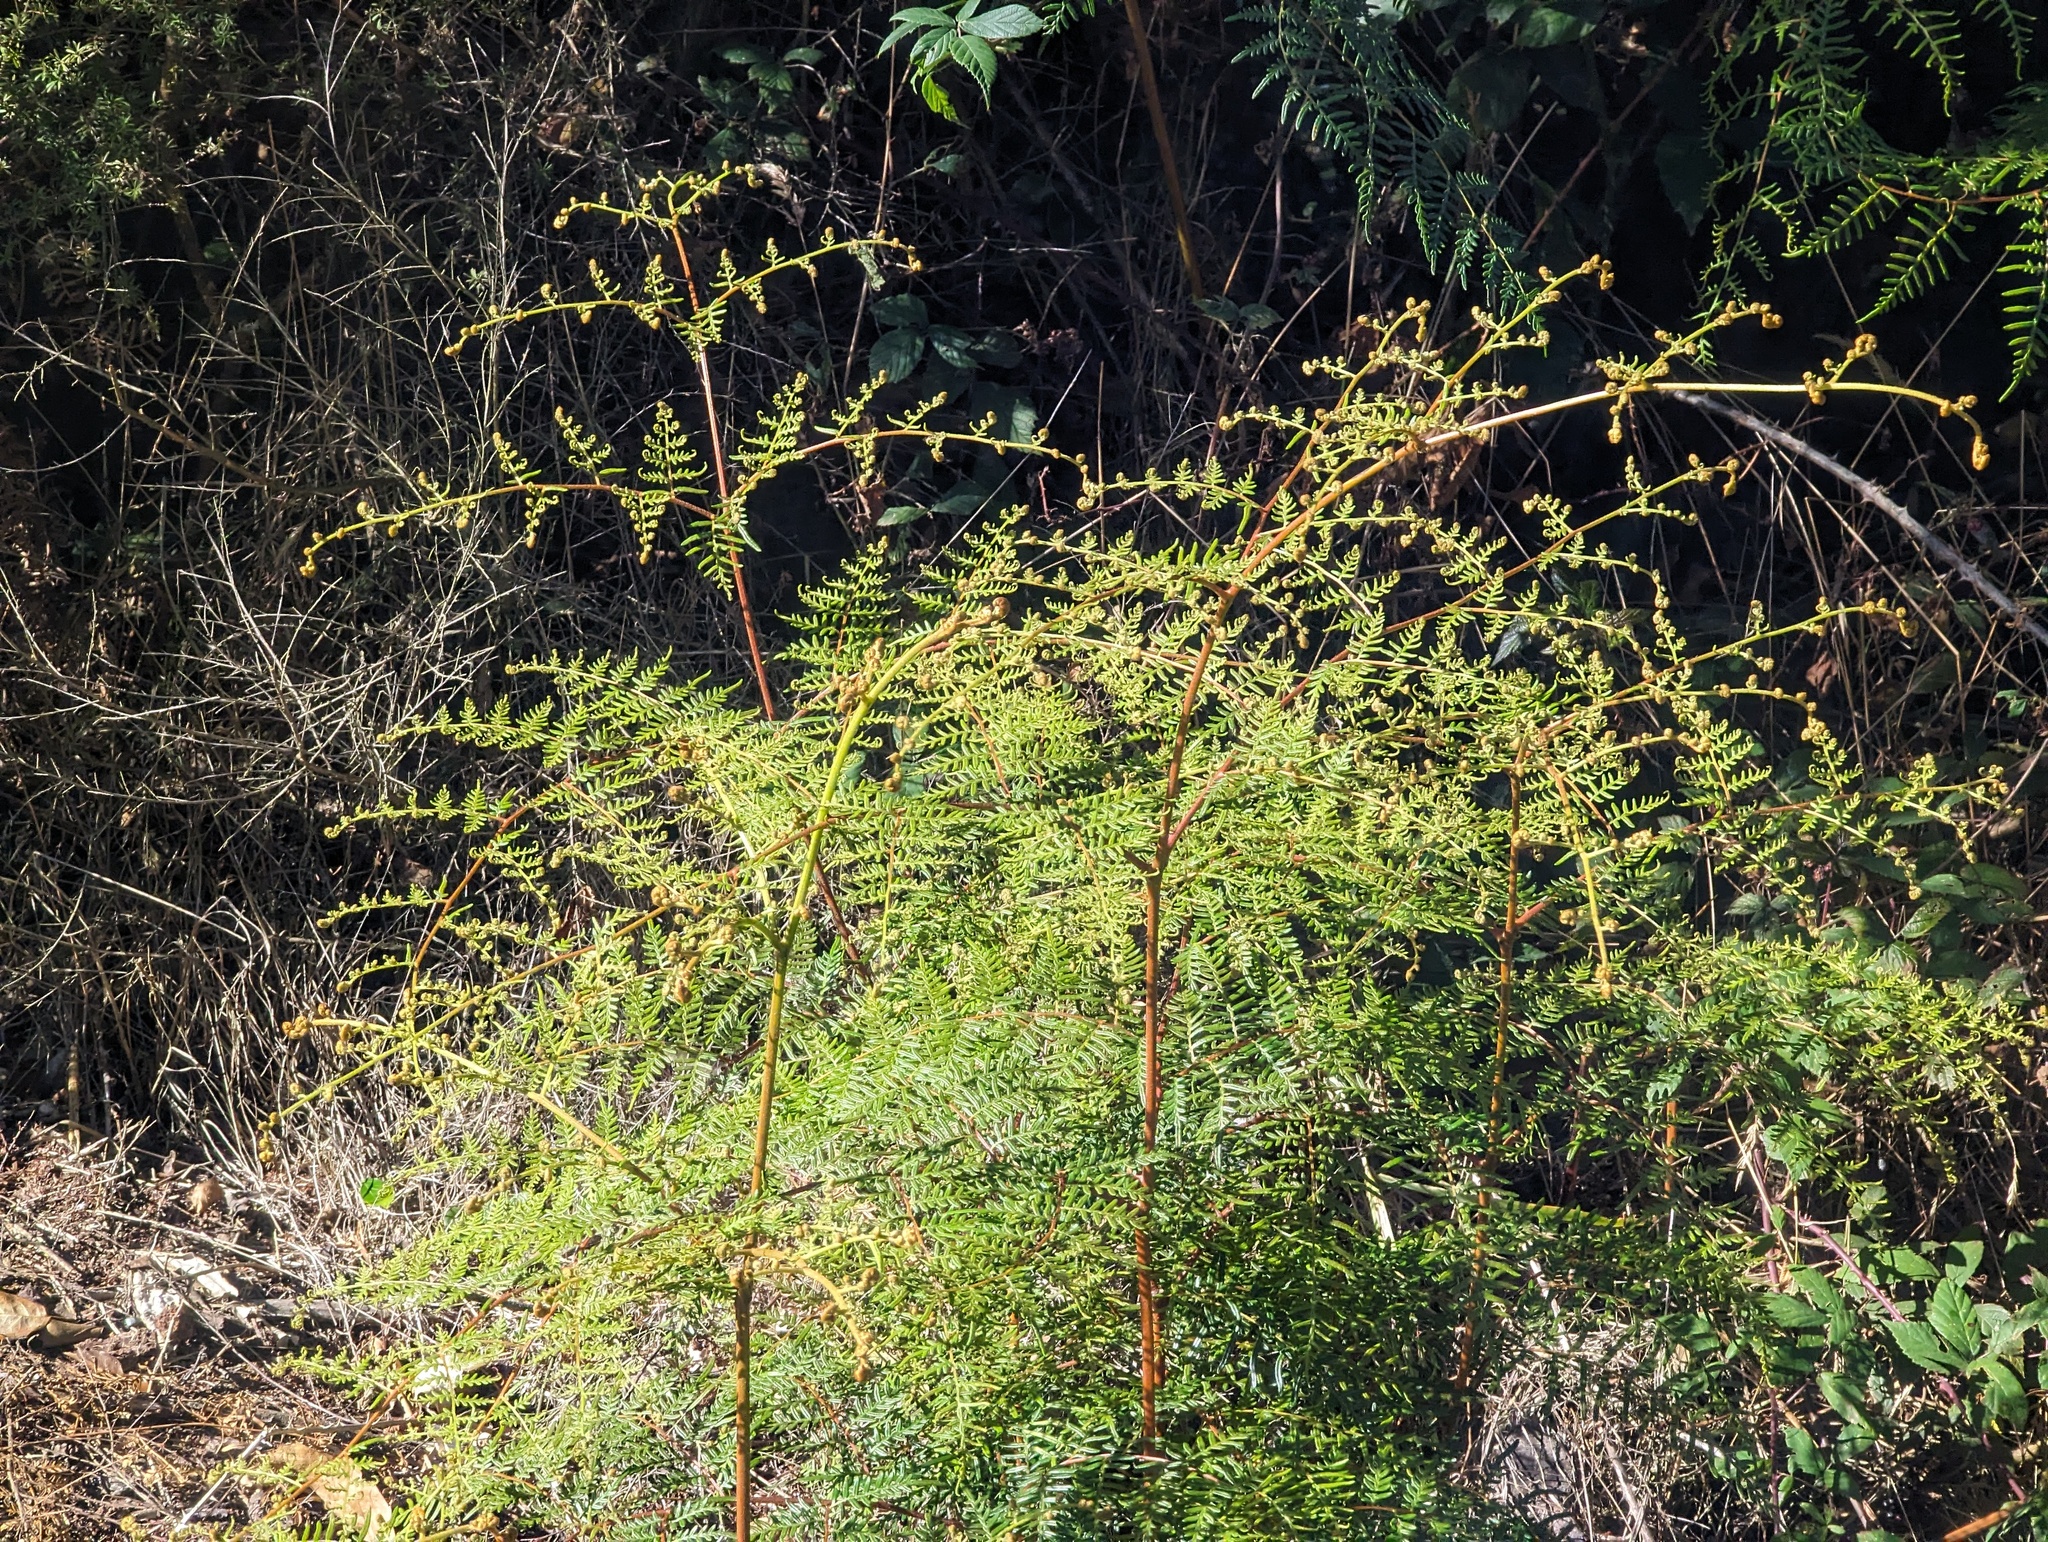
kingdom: Plantae
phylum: Tracheophyta
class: Polypodiopsida
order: Polypodiales
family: Dennstaedtiaceae
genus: Pteridium
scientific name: Pteridium esculentum
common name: Bracken fern
